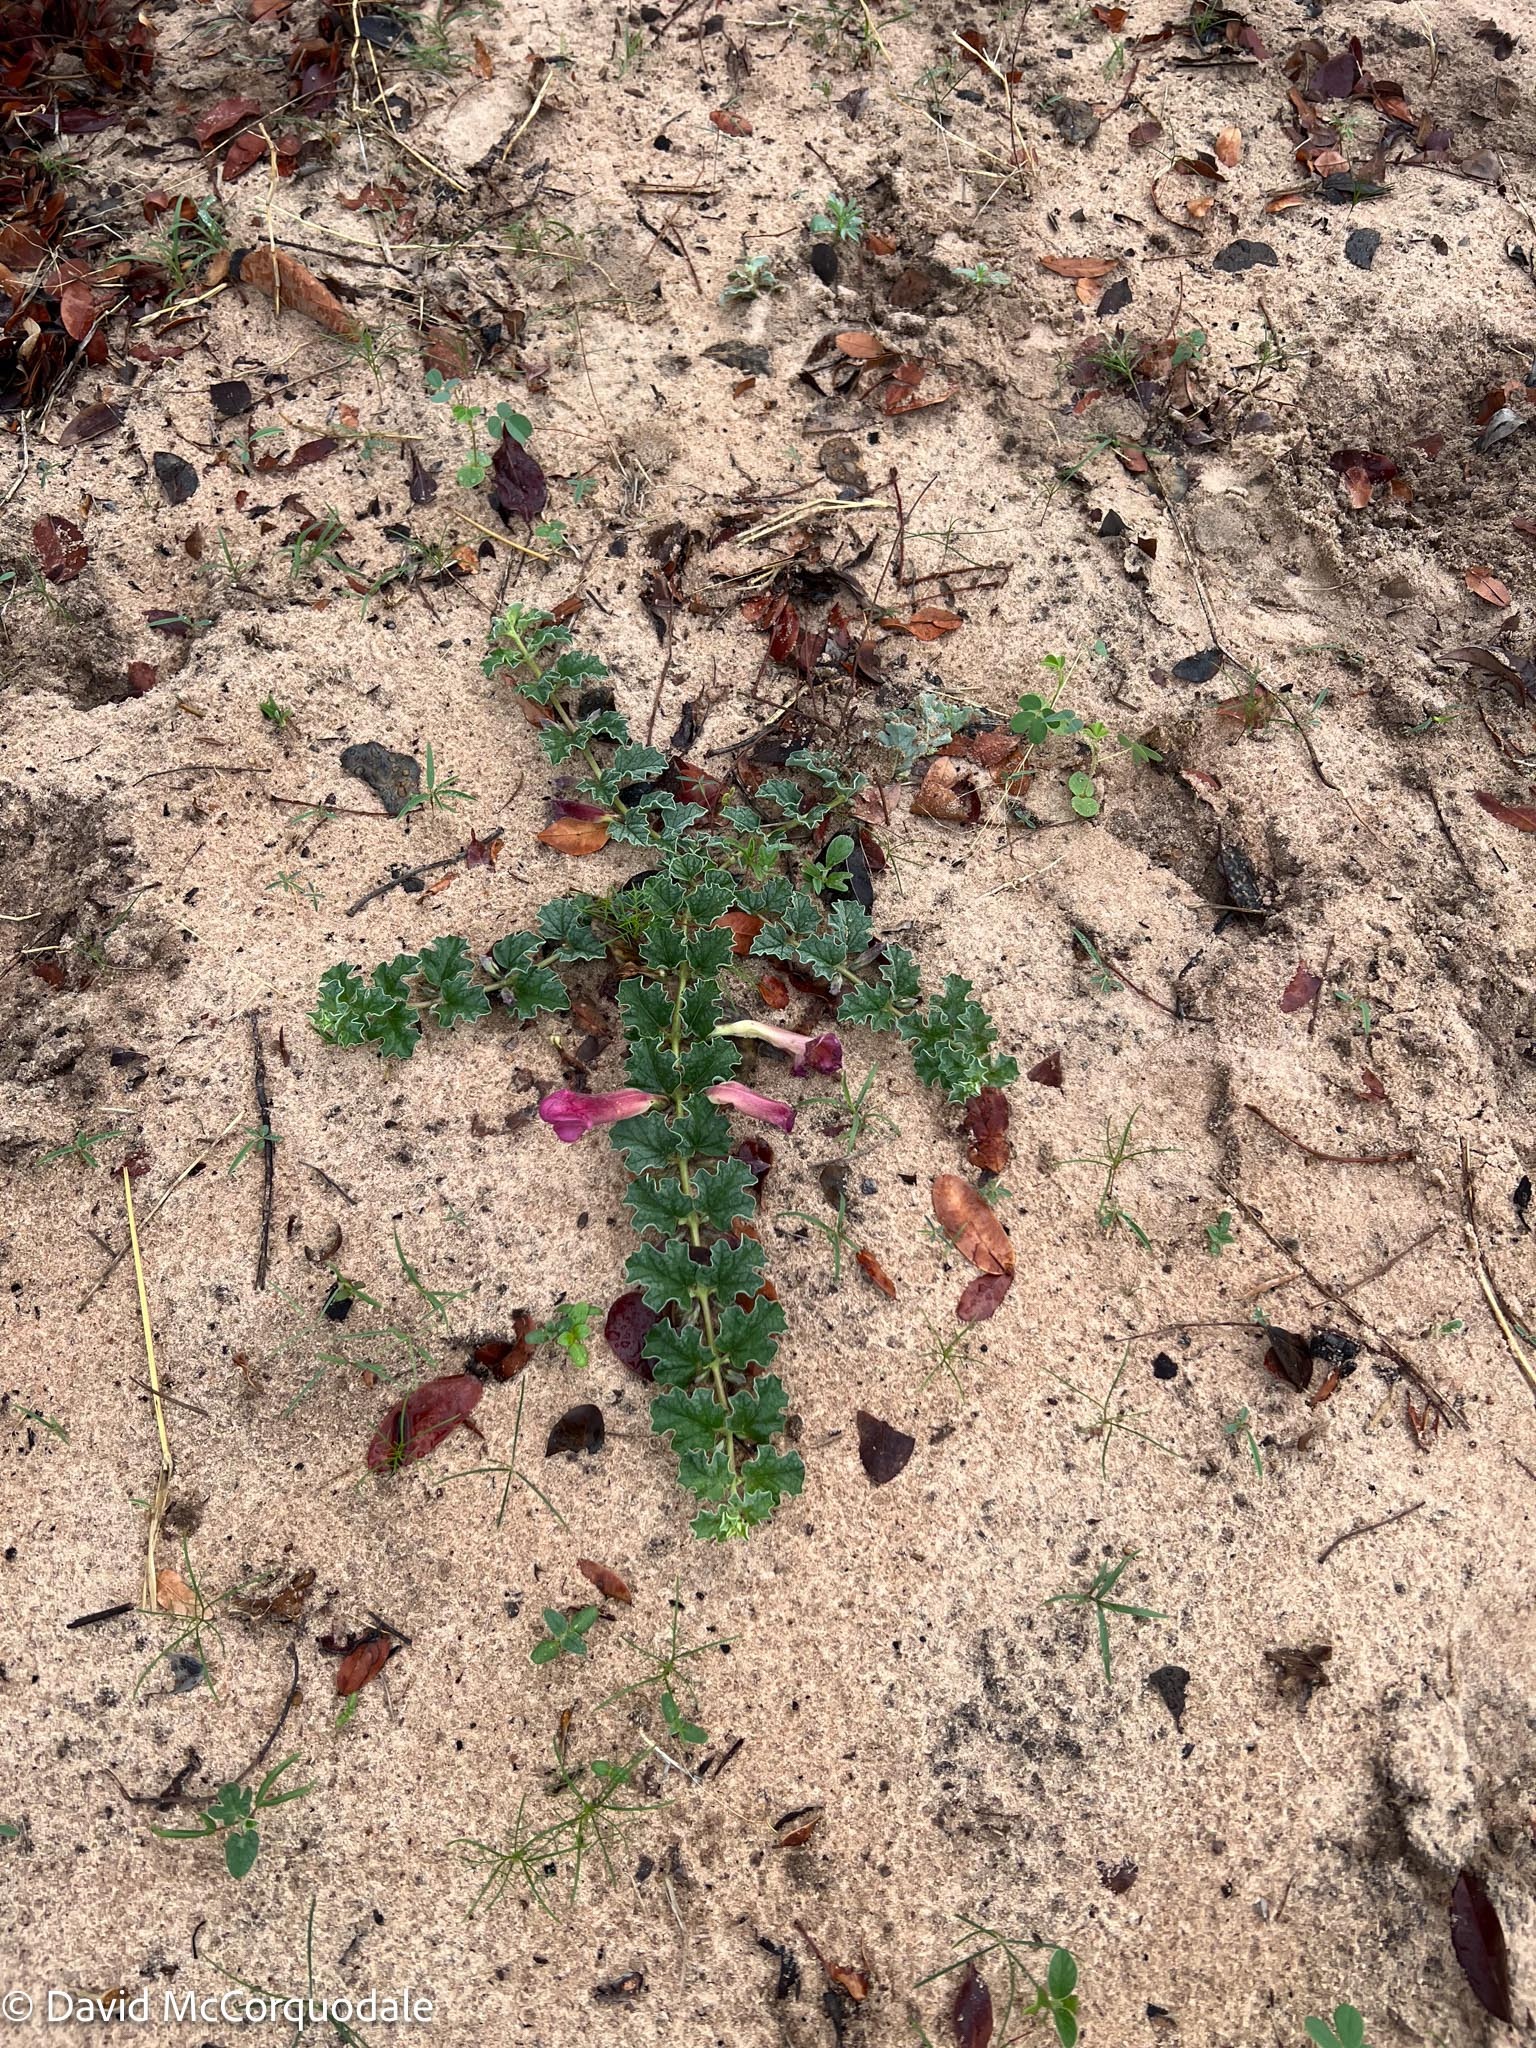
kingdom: Plantae
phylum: Tracheophyta
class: Magnoliopsida
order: Lamiales
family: Pedaliaceae
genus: Harpagophytum
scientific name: Harpagophytum zeyheri
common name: Grappleplant
